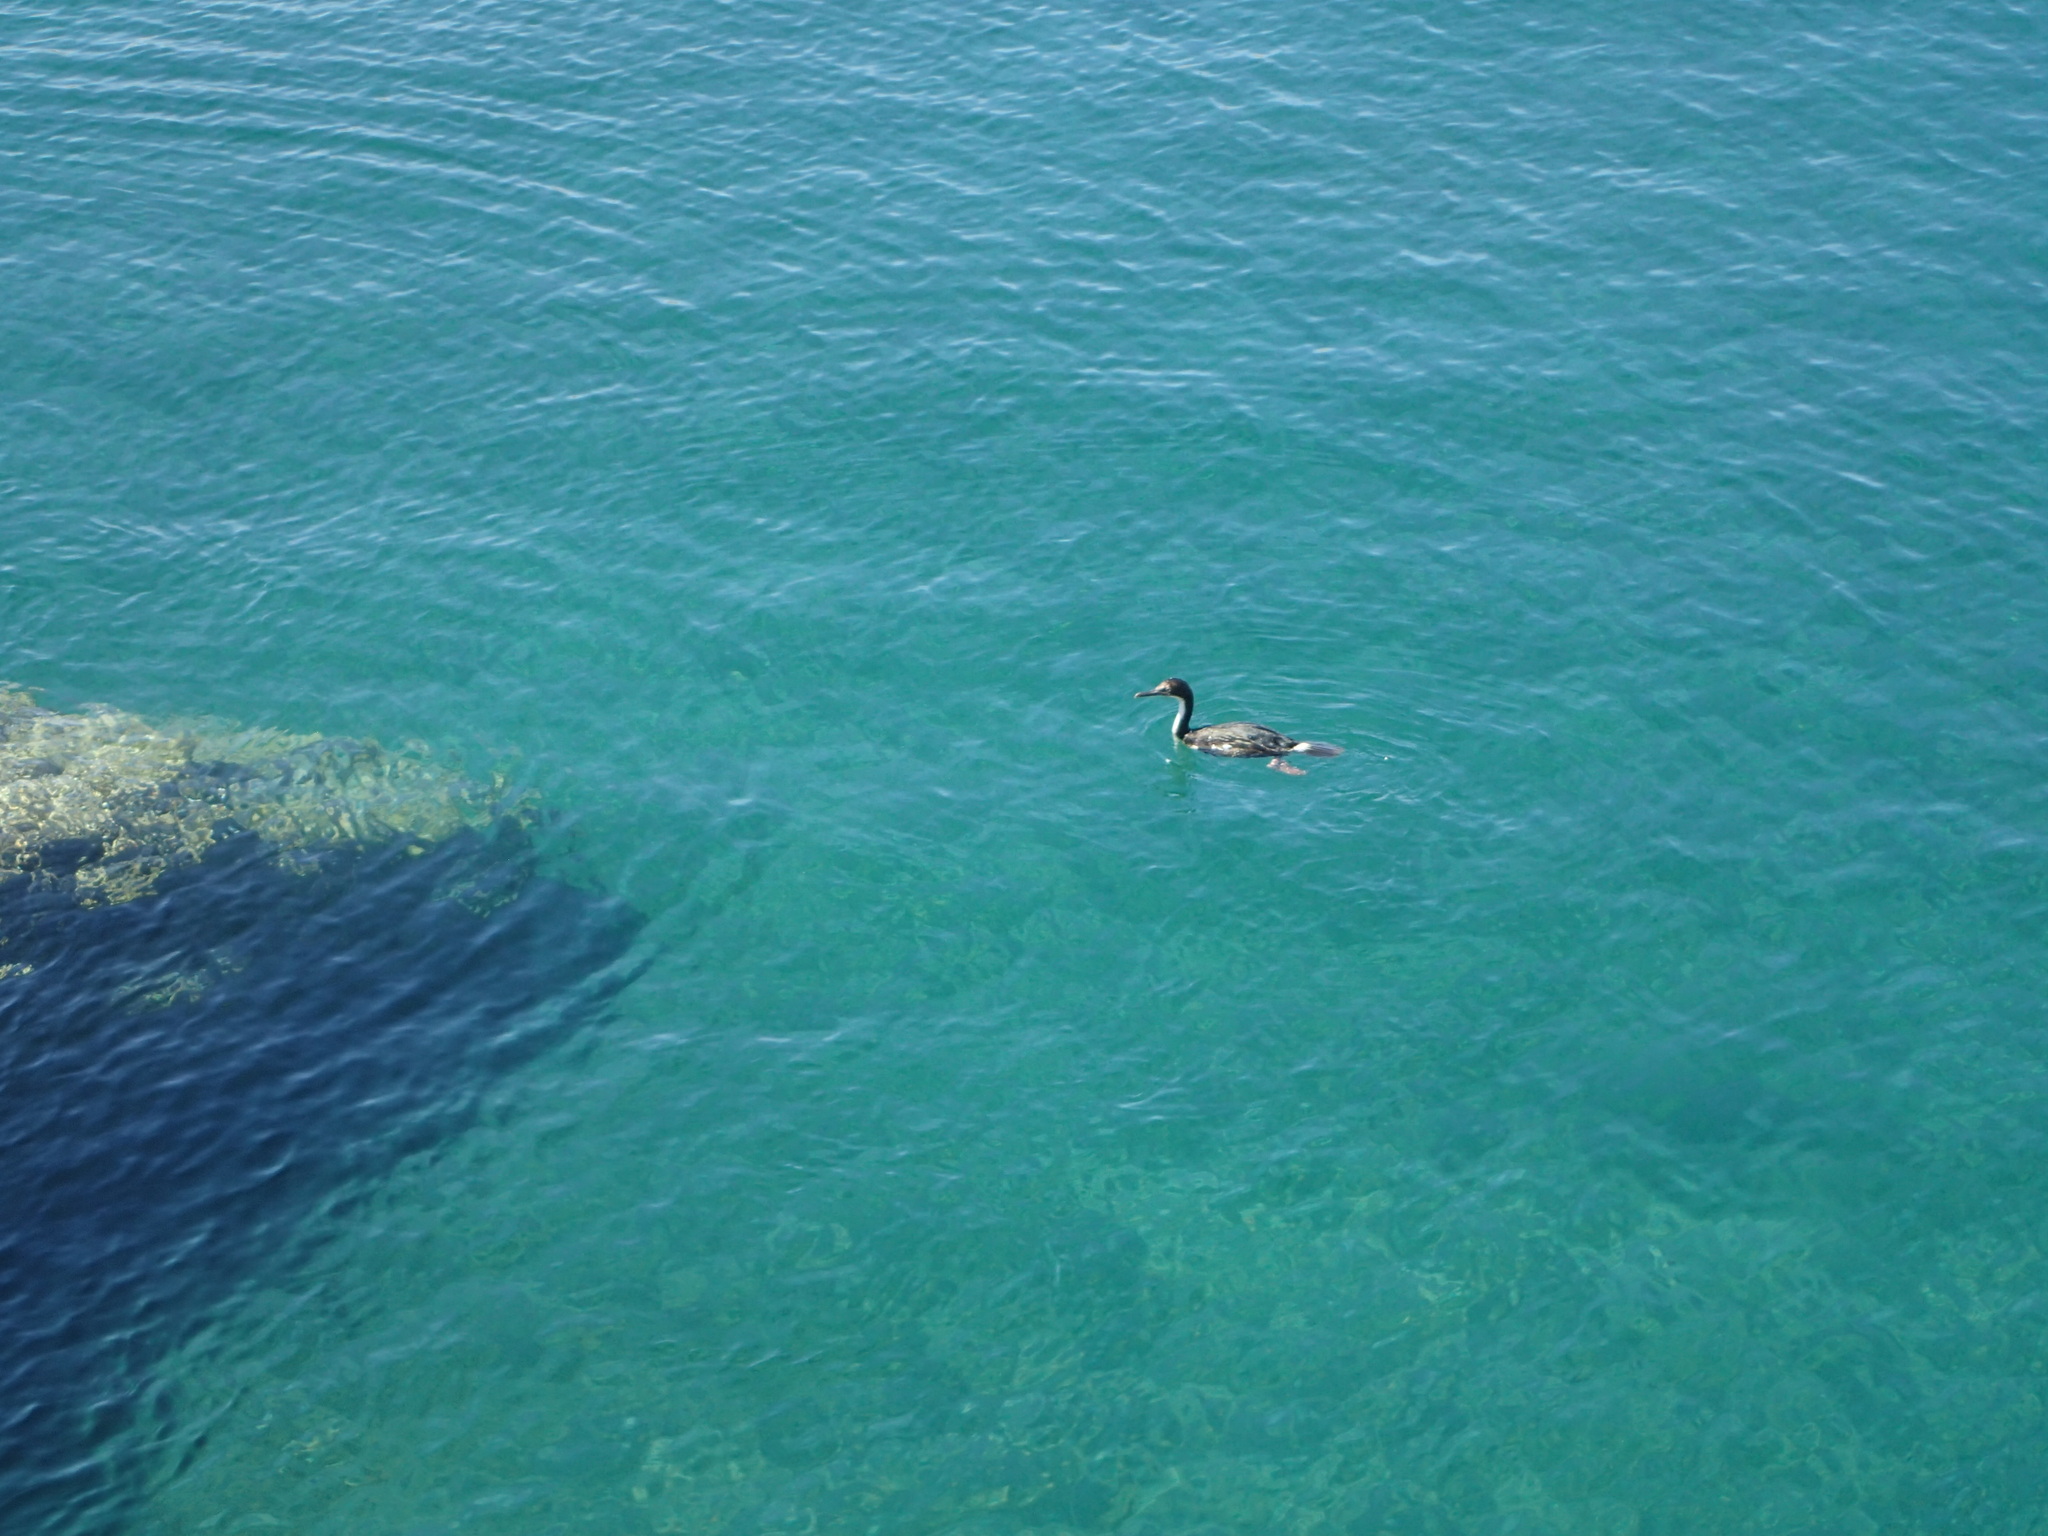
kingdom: Animalia
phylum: Chordata
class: Aves
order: Suliformes
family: Phalacrocoracidae
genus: Leucocarbo
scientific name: Leucocarbo atriceps
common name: Imperial shag
